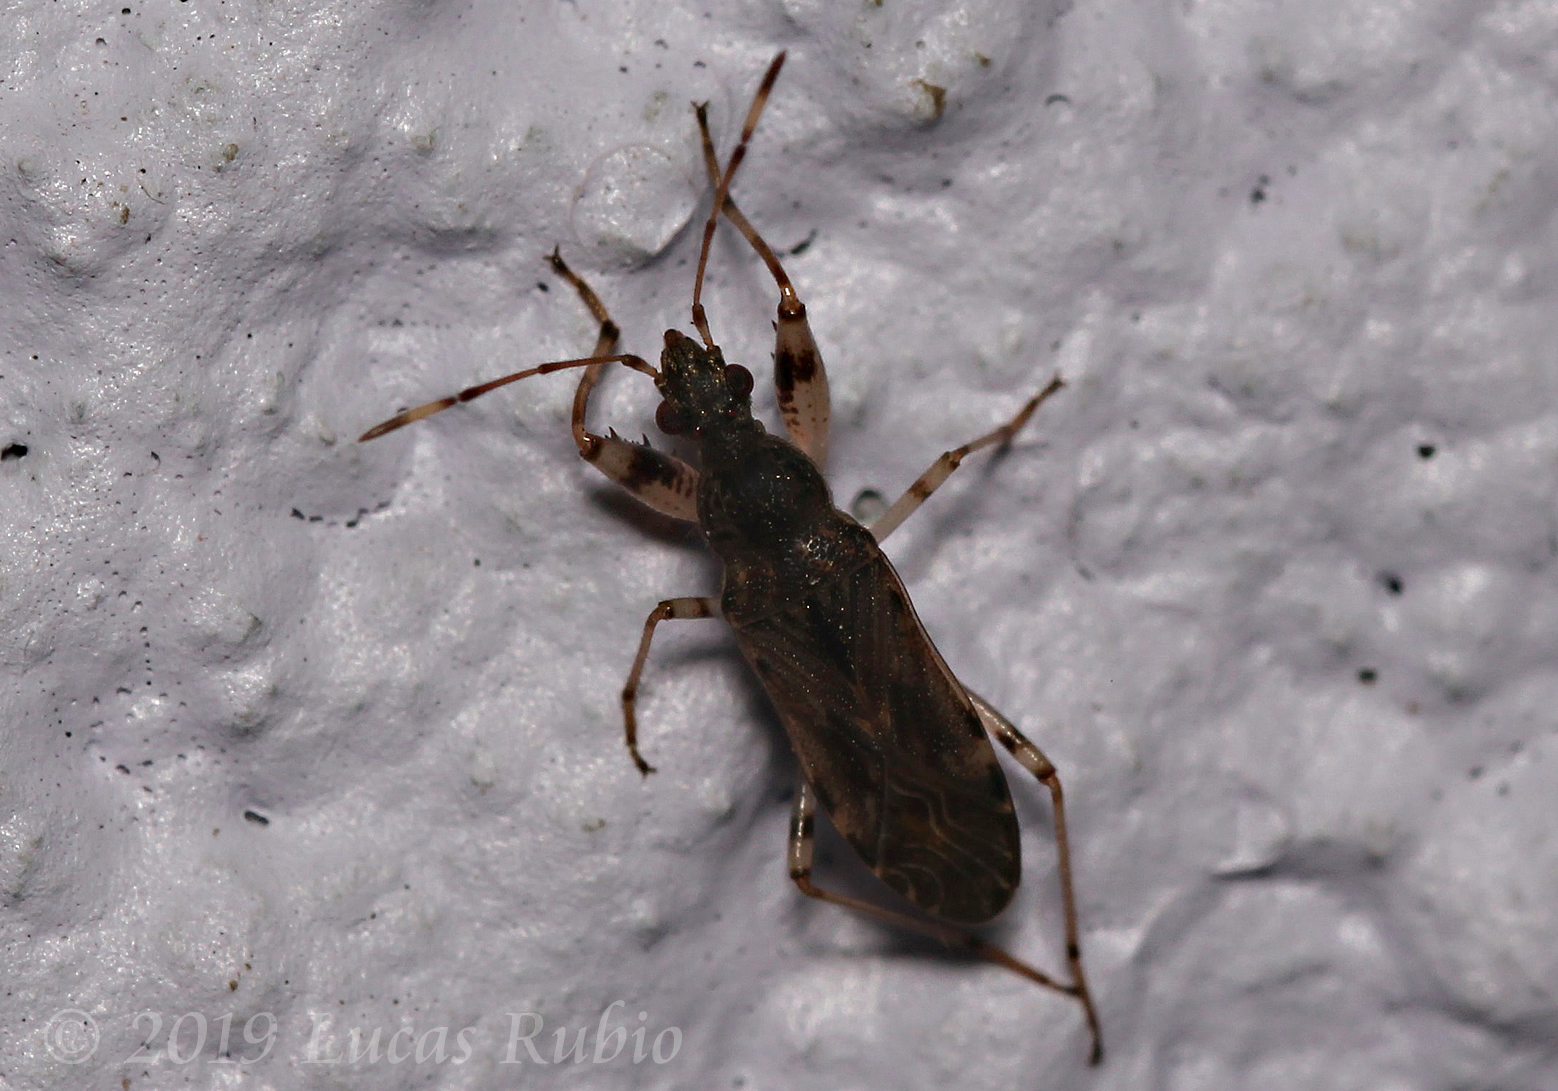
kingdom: Animalia
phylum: Arthropoda
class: Insecta
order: Hemiptera
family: Rhyparochromidae
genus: Paisana
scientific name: Paisana brachialis
